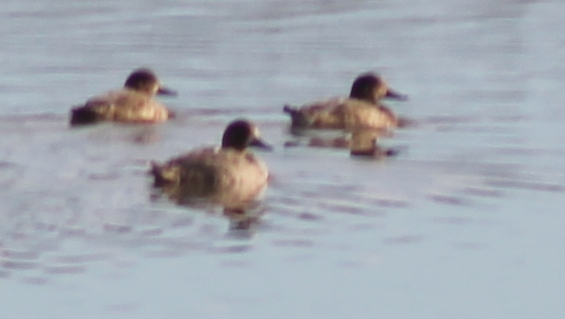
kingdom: Animalia
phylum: Chordata
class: Aves
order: Anseriformes
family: Anatidae
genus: Aythya
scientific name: Aythya americana
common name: Redhead
